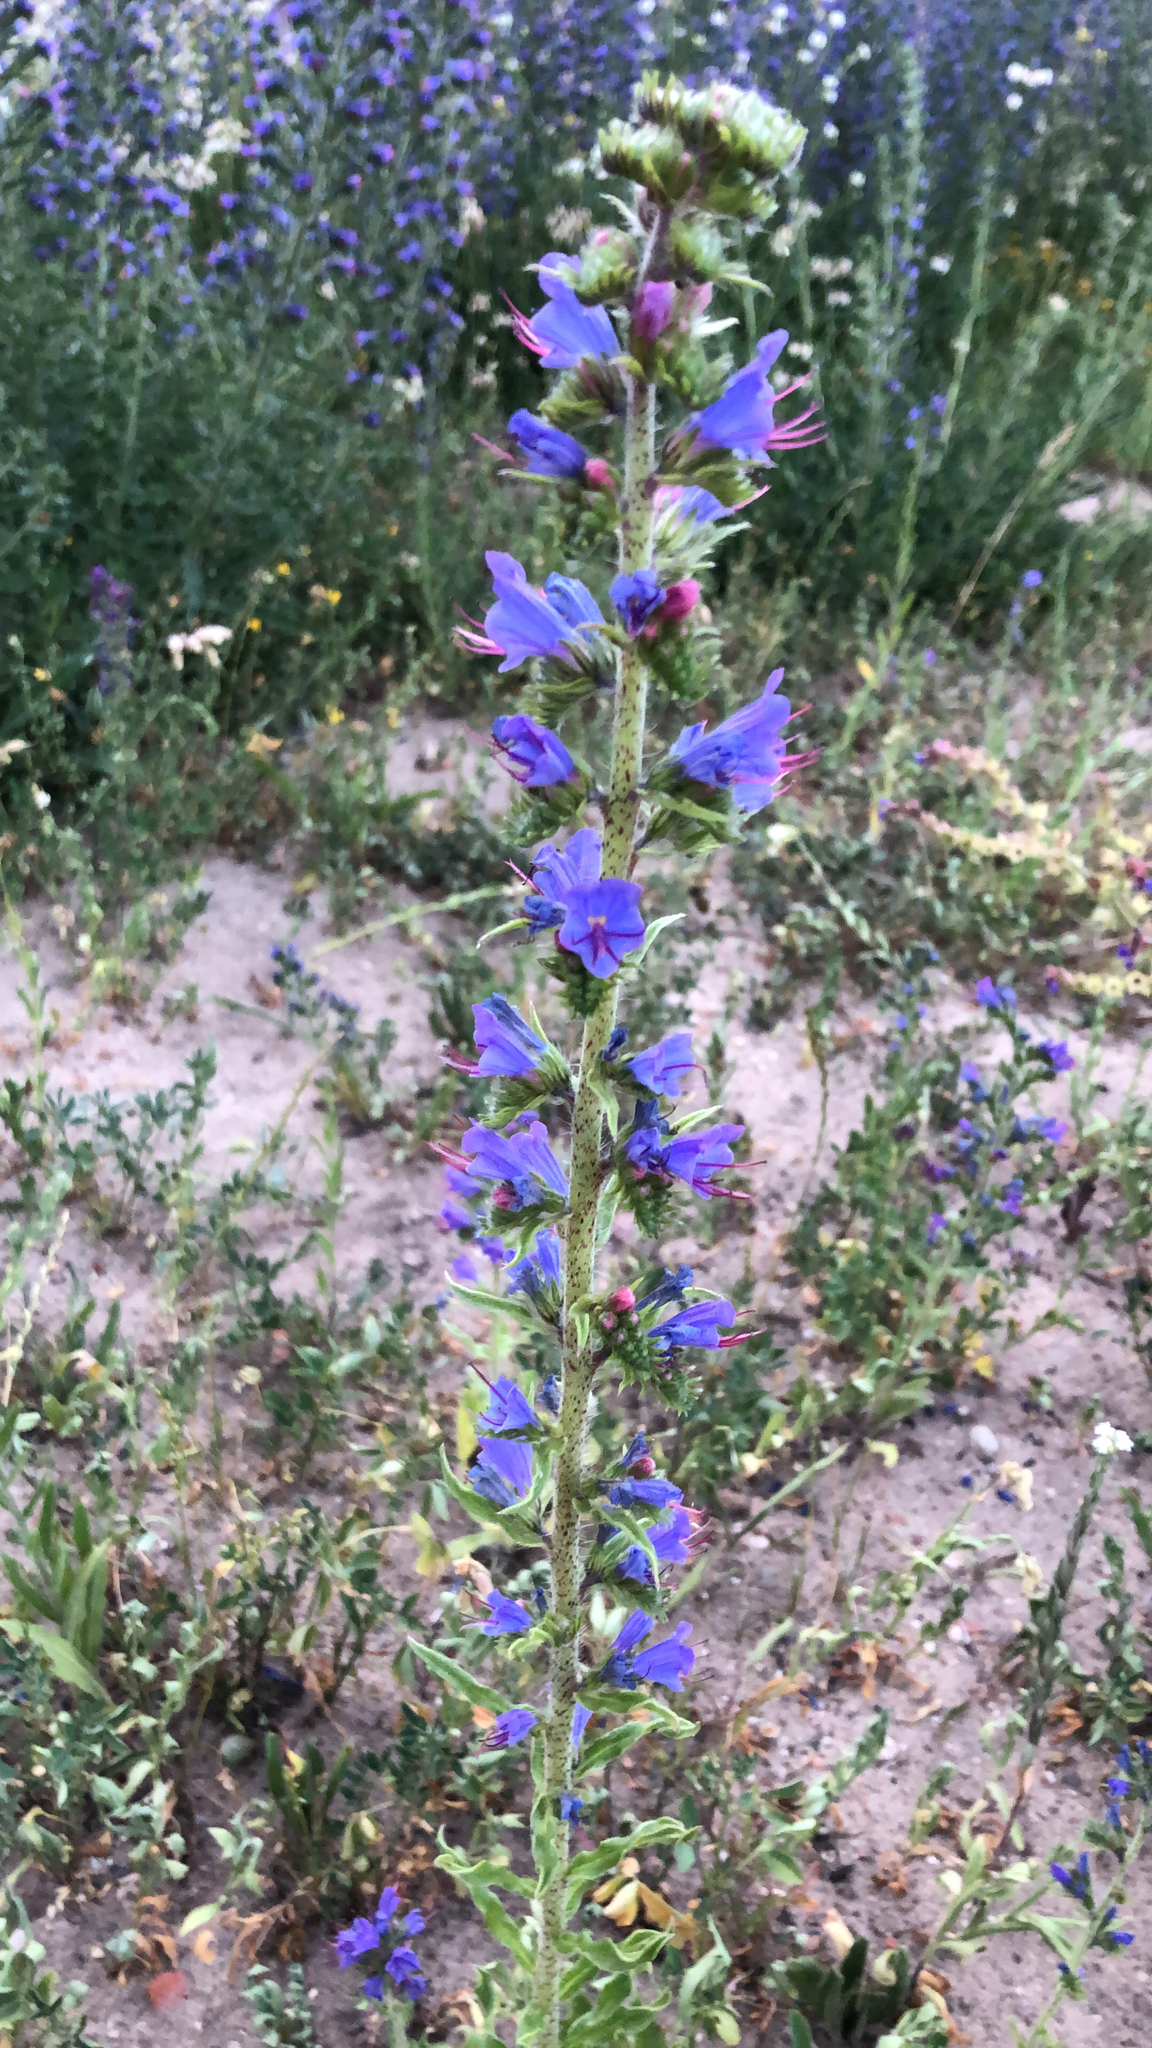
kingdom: Plantae
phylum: Tracheophyta
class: Magnoliopsida
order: Boraginales
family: Boraginaceae
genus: Echium
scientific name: Echium vulgare
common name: Common viper's bugloss
